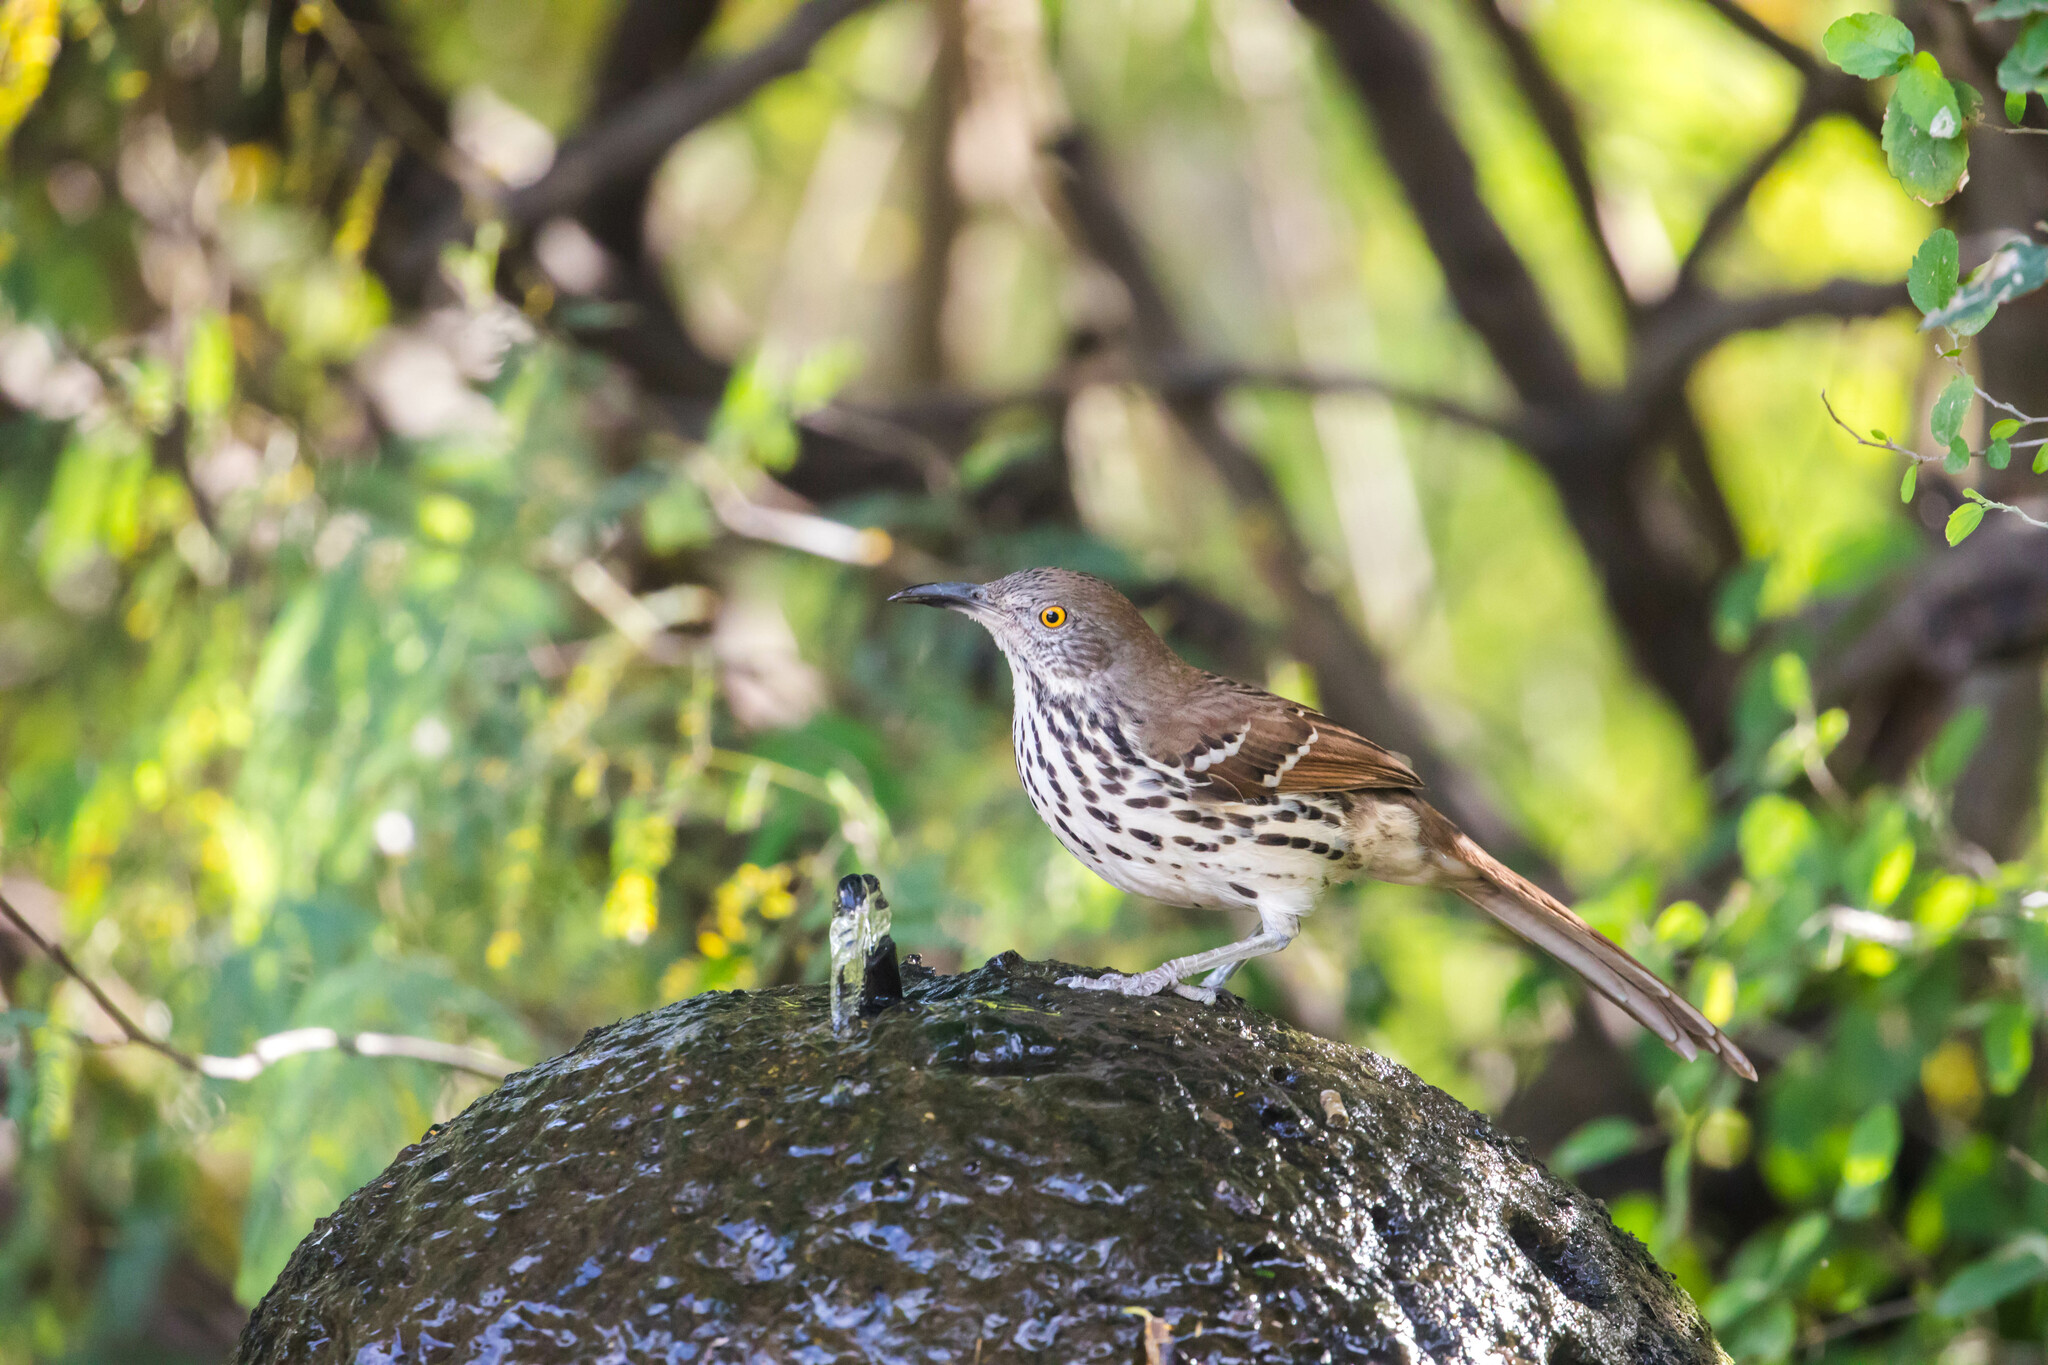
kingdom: Animalia
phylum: Chordata
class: Aves
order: Passeriformes
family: Mimidae
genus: Toxostoma
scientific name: Toxostoma longirostre
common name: Long-billed thrasher
